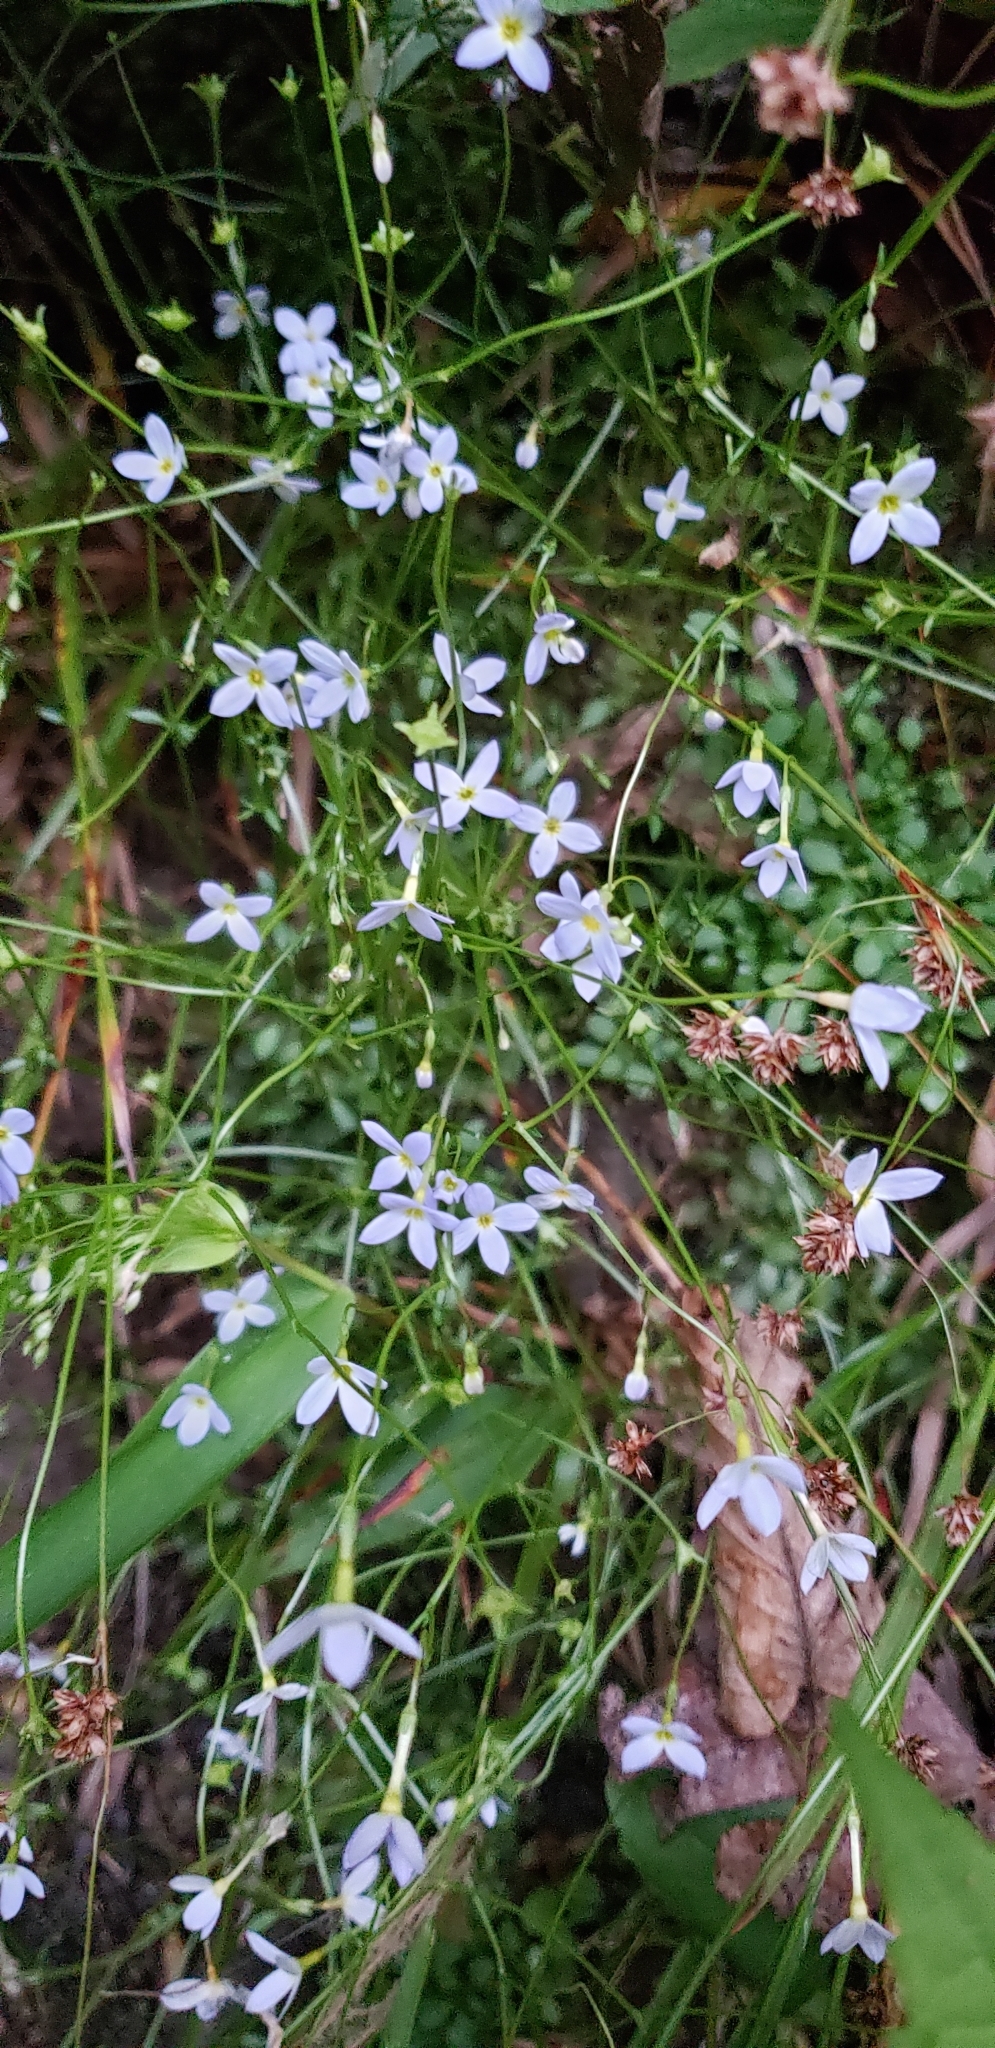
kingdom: Plantae
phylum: Tracheophyta
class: Magnoliopsida
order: Gentianales
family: Rubiaceae
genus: Houstonia
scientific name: Houstonia caerulea
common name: Bluets
